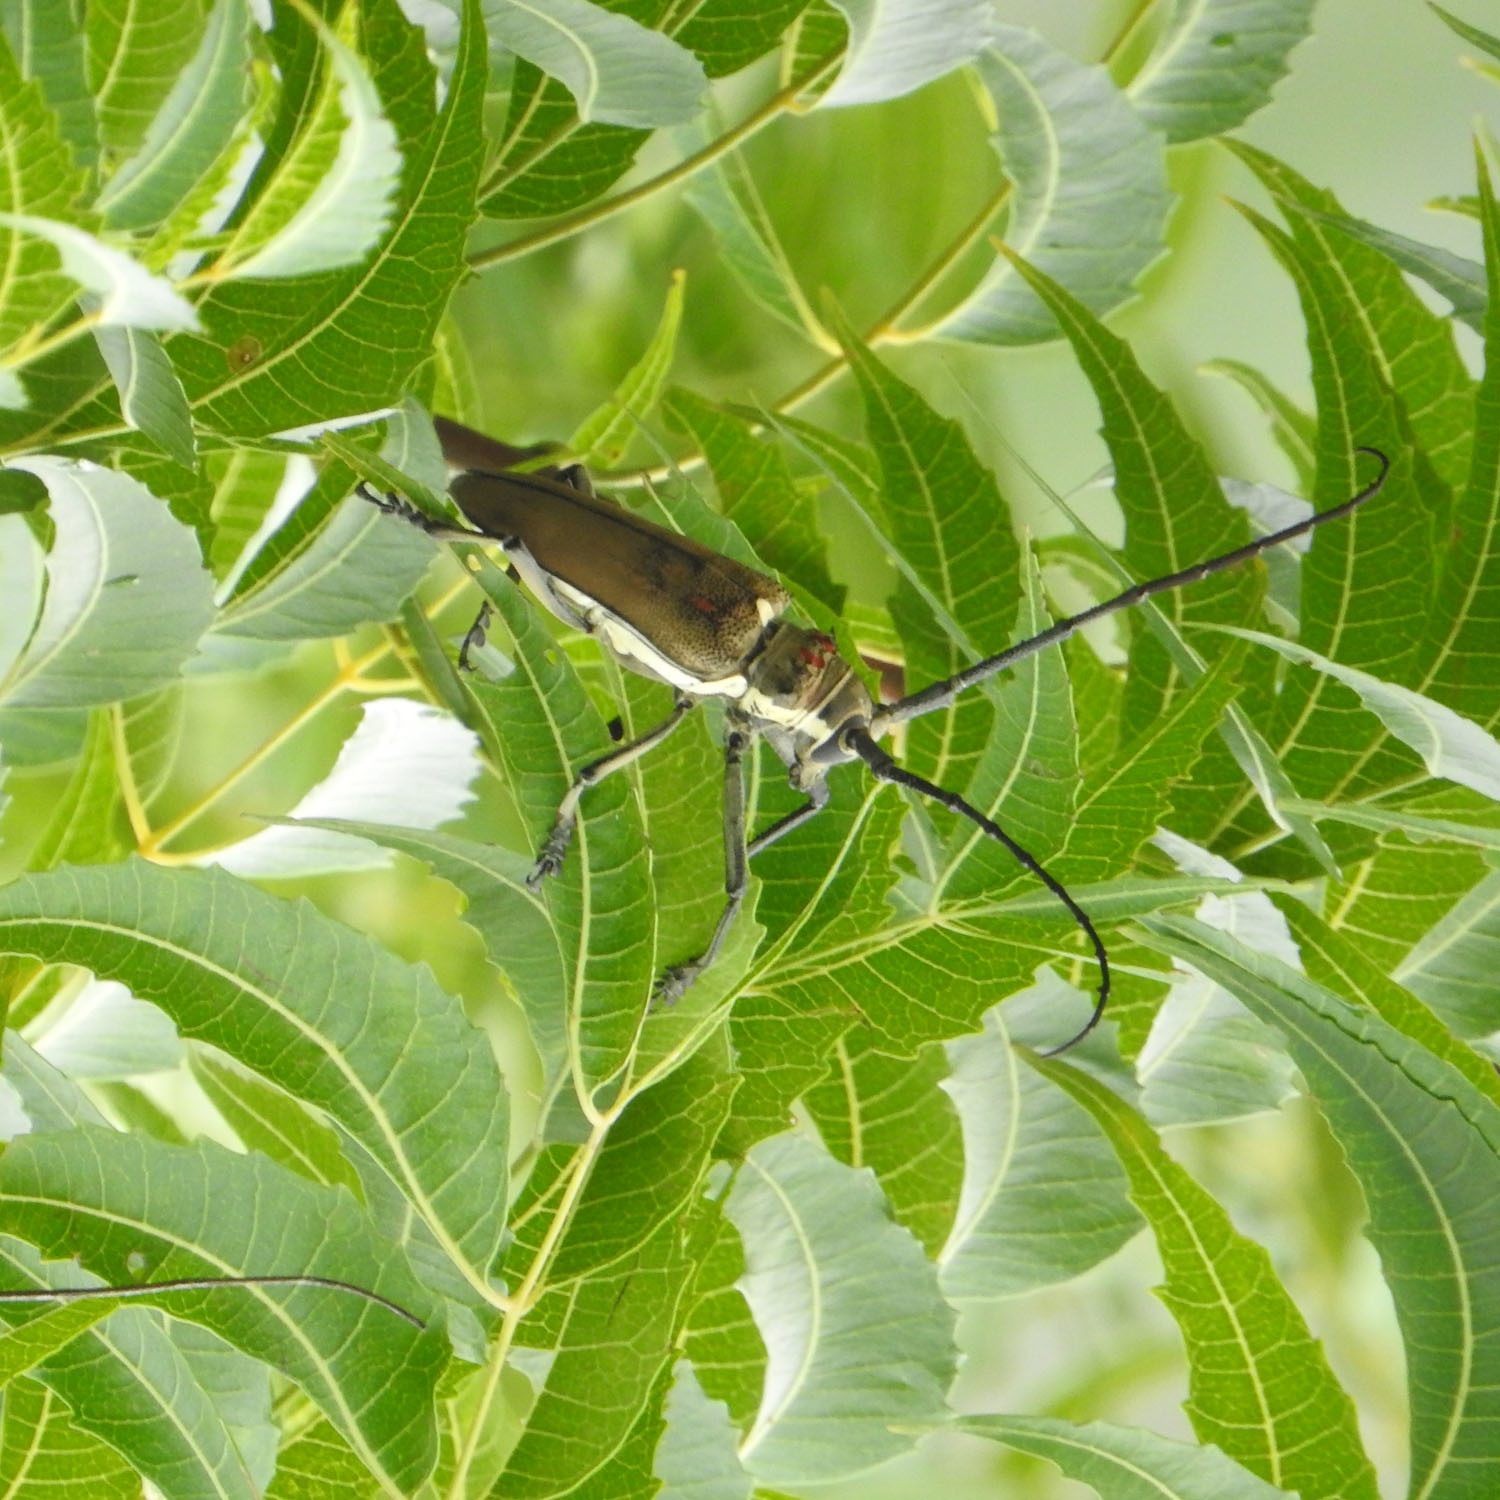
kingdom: Animalia
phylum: Arthropoda
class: Insecta
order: Coleoptera
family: Cerambycidae
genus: Batocera
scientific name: Batocera rufomaculata
